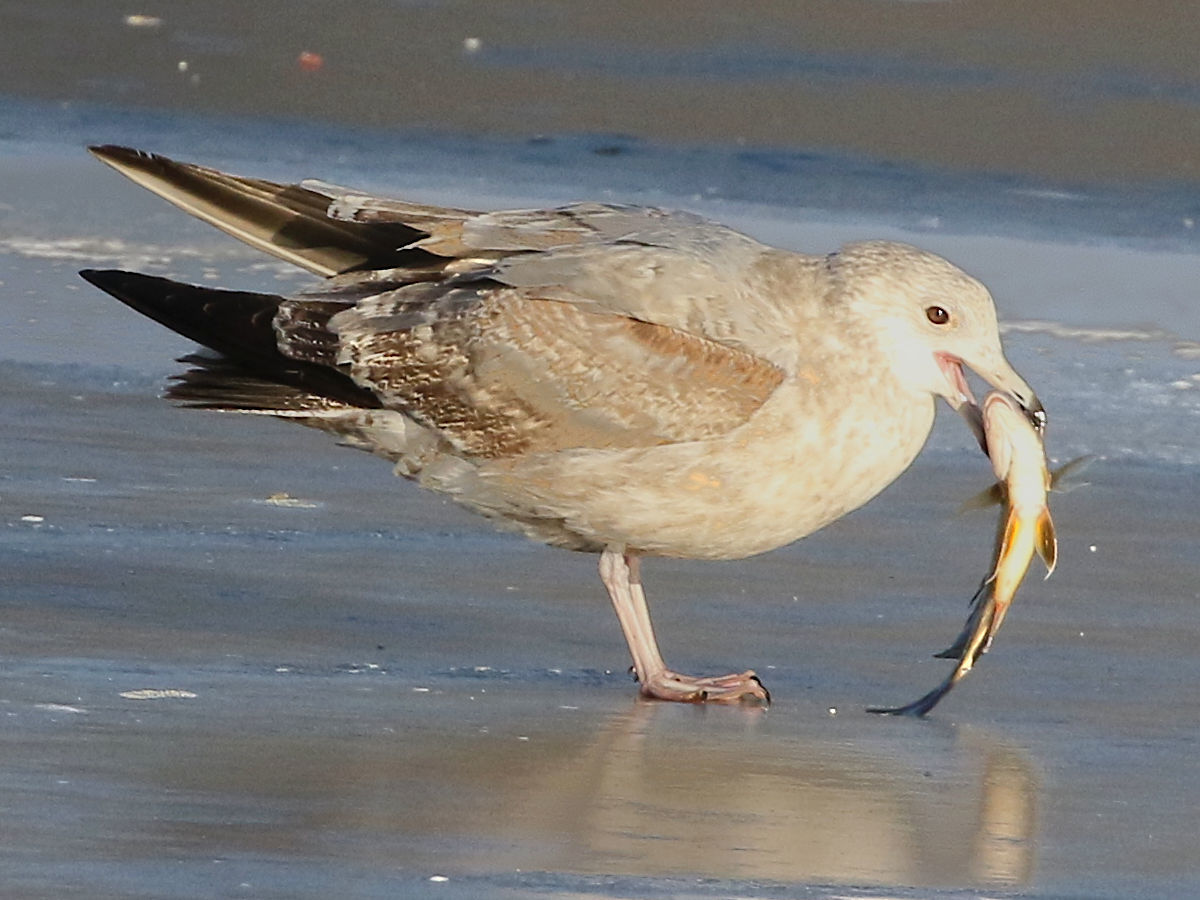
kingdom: Animalia
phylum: Chordata
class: Aves
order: Charadriiformes
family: Laridae
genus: Larus
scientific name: Larus argentatus
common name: Herring gull
